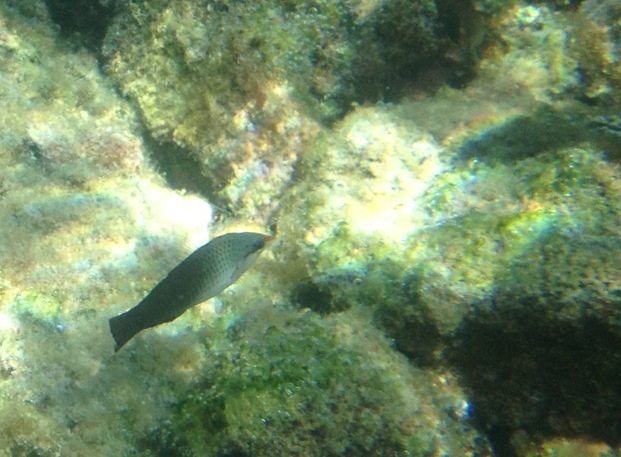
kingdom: Animalia
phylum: Chordata
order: Perciformes
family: Labridae
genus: Gomphosus
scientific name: Gomphosus varius
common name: Bird wrasse
